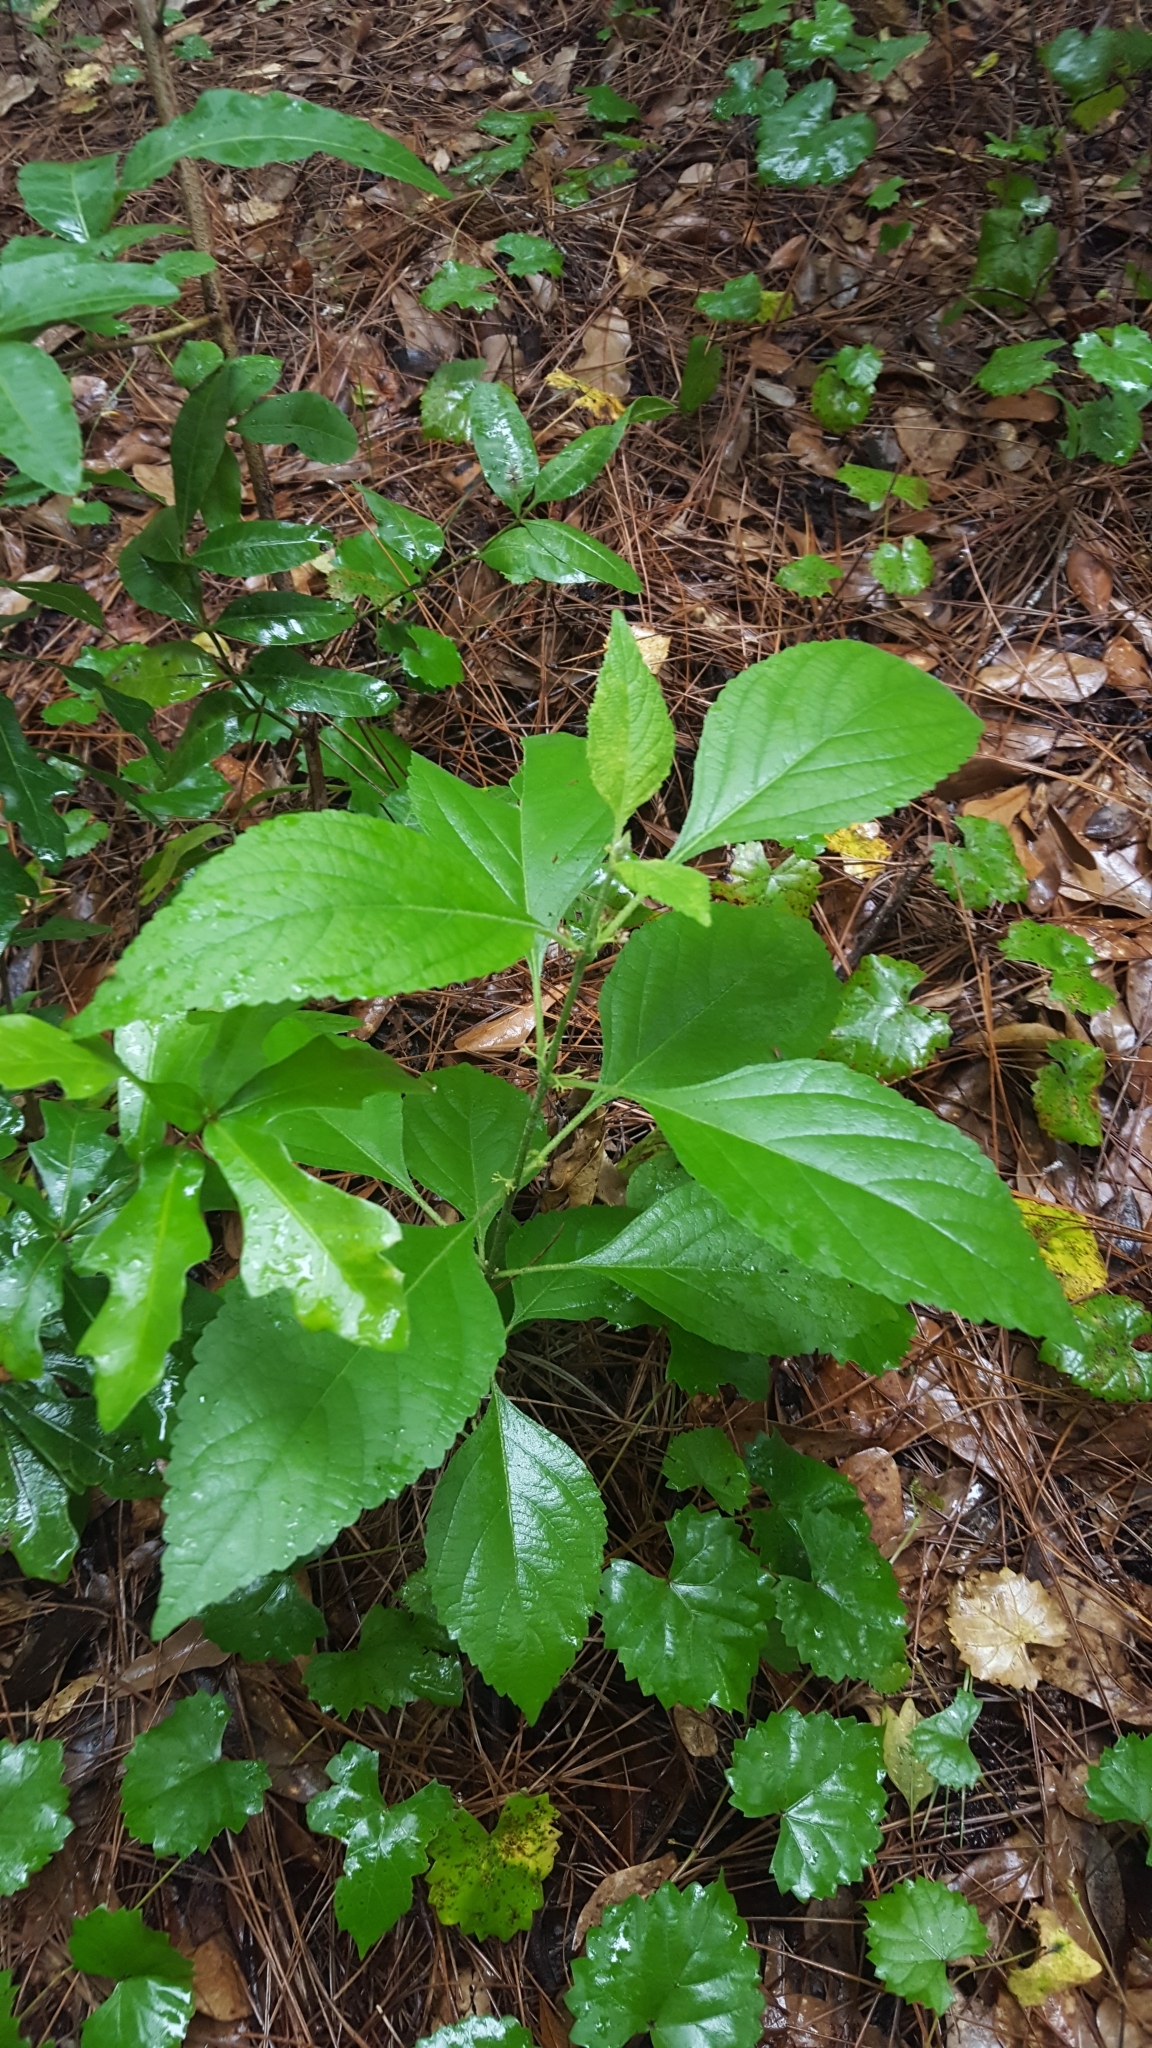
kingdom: Plantae
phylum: Tracheophyta
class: Magnoliopsida
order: Lamiales
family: Lamiaceae
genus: Callicarpa
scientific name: Callicarpa americana
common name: American beautyberry
